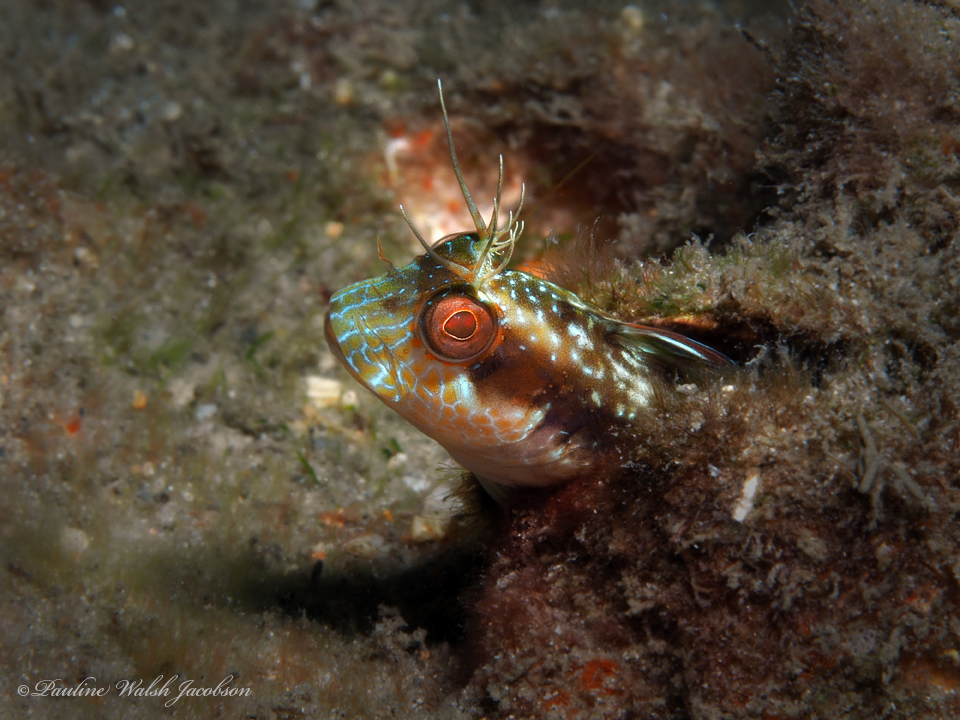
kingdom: Animalia
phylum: Chordata
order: Perciformes
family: Blenniidae
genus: Parablennius
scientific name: Parablennius marmoreus
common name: Seaweed blenny
